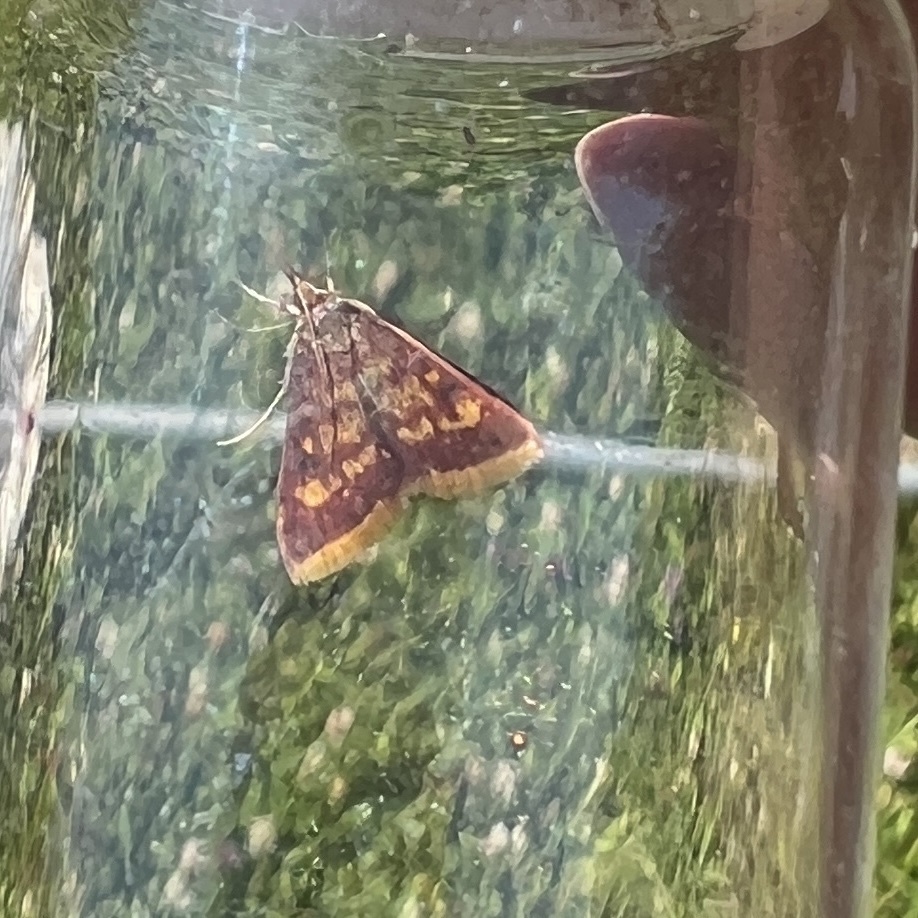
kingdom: Animalia
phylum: Arthropoda
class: Insecta
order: Lepidoptera
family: Crambidae
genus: Pyrausta
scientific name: Pyrausta acrionalis
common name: Mint-loving pyrausta moth
